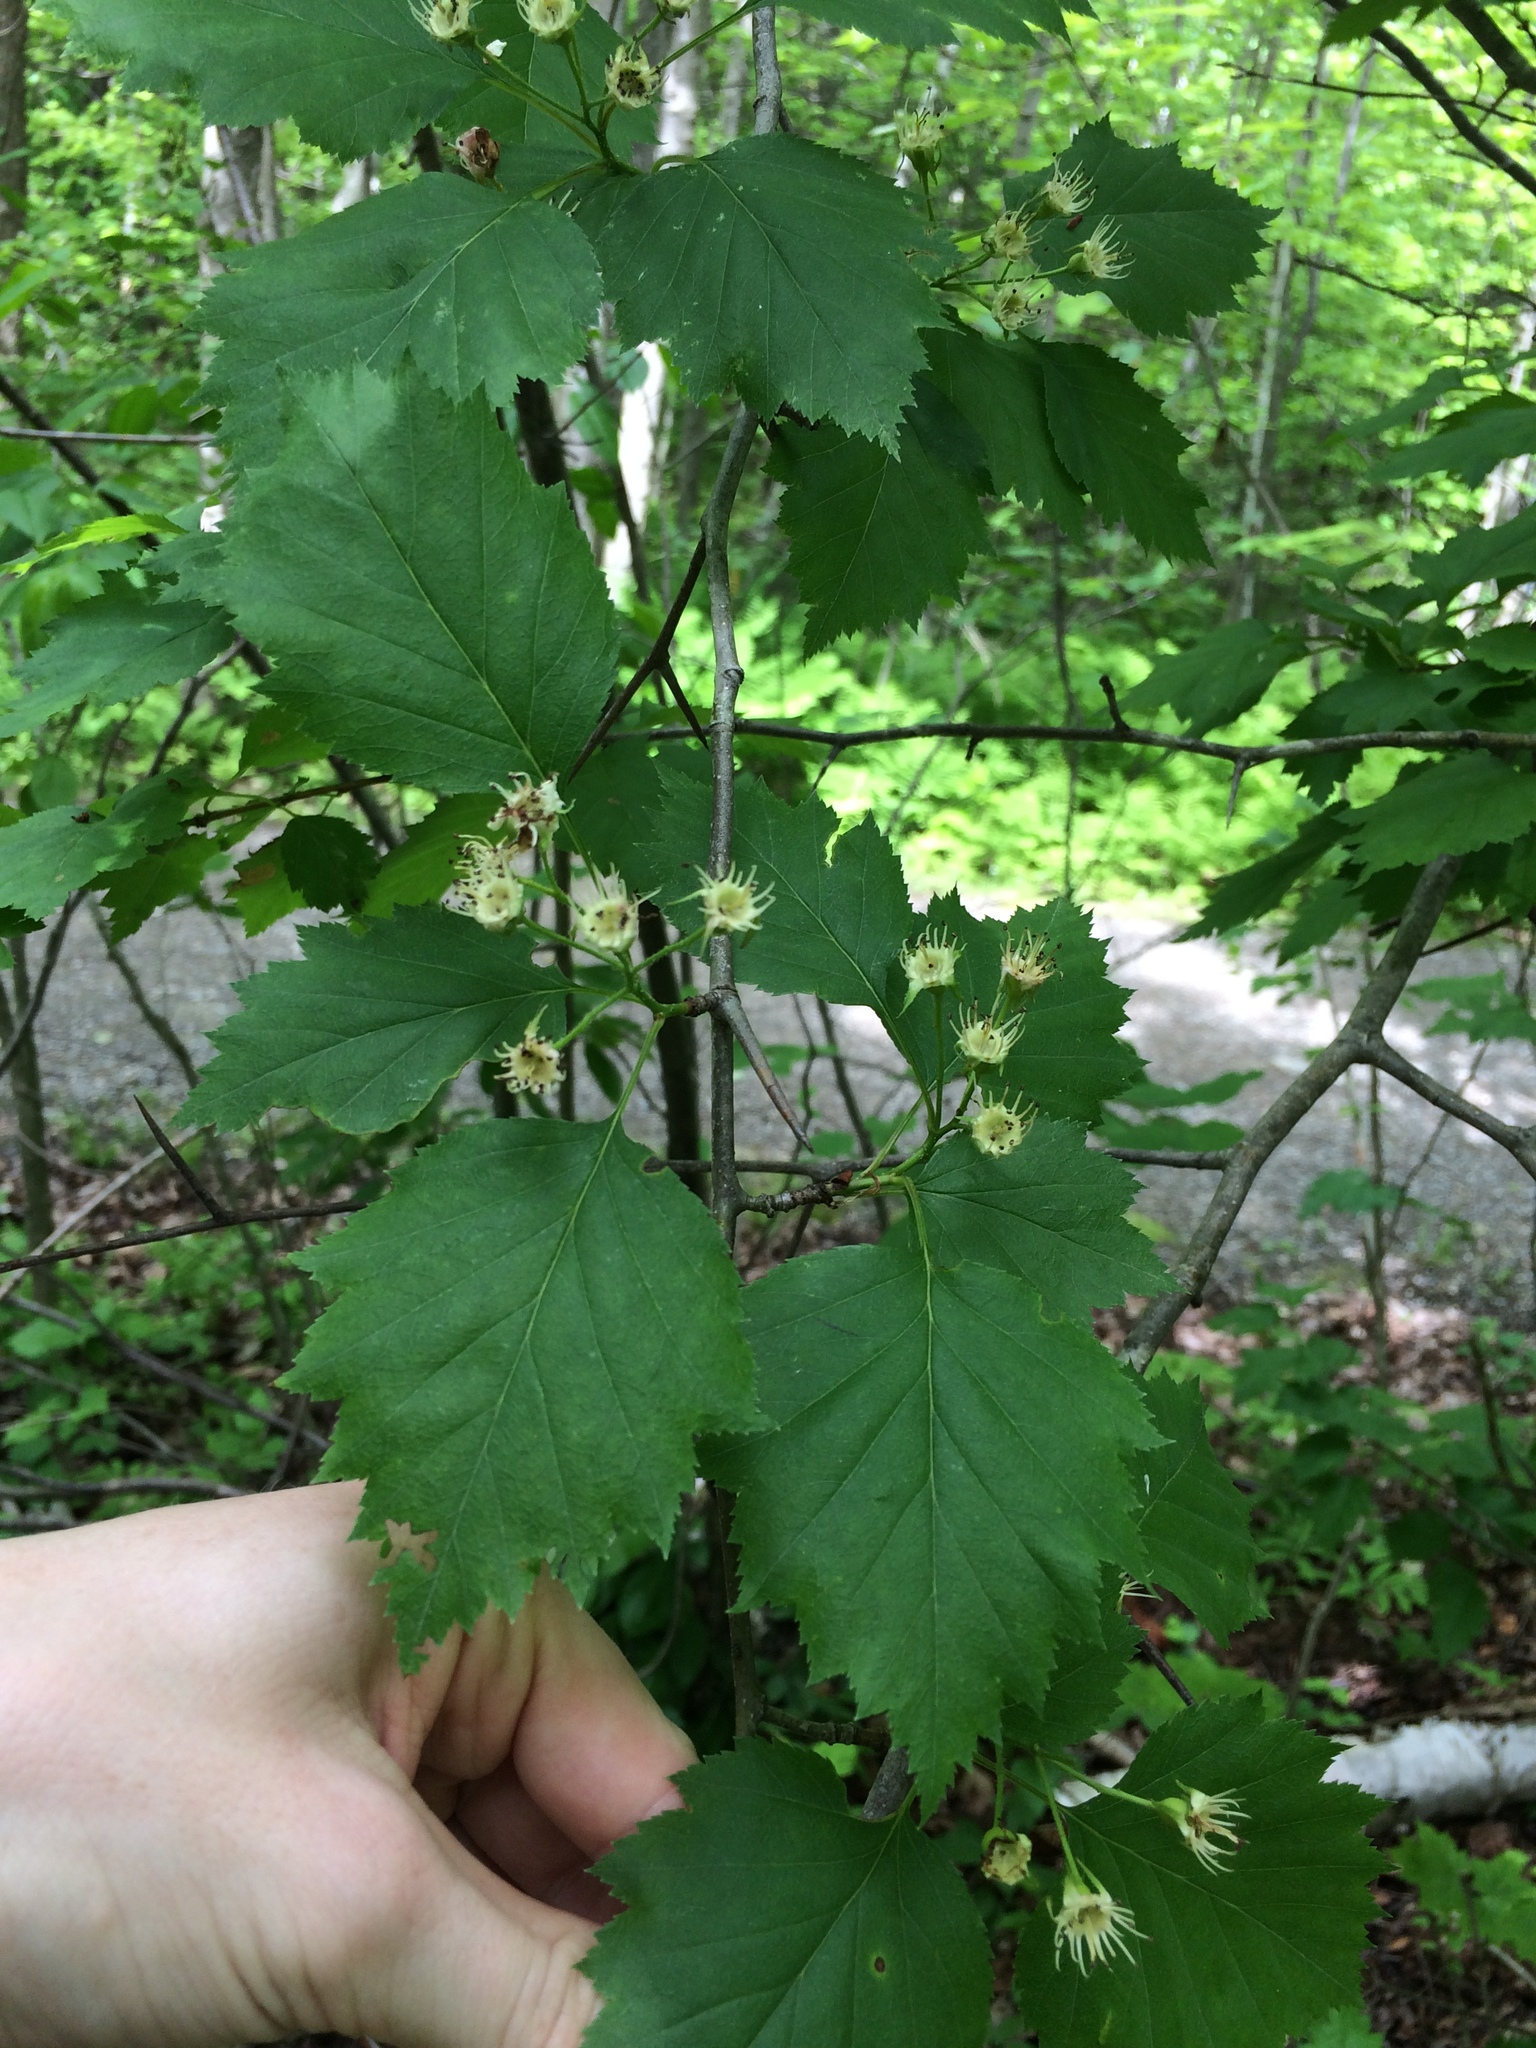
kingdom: Plantae
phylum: Tracheophyta
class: Magnoliopsida
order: Rosales
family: Rosaceae
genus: Crataegus
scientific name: Crataegus schuettei
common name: Schuette's hawthorn
